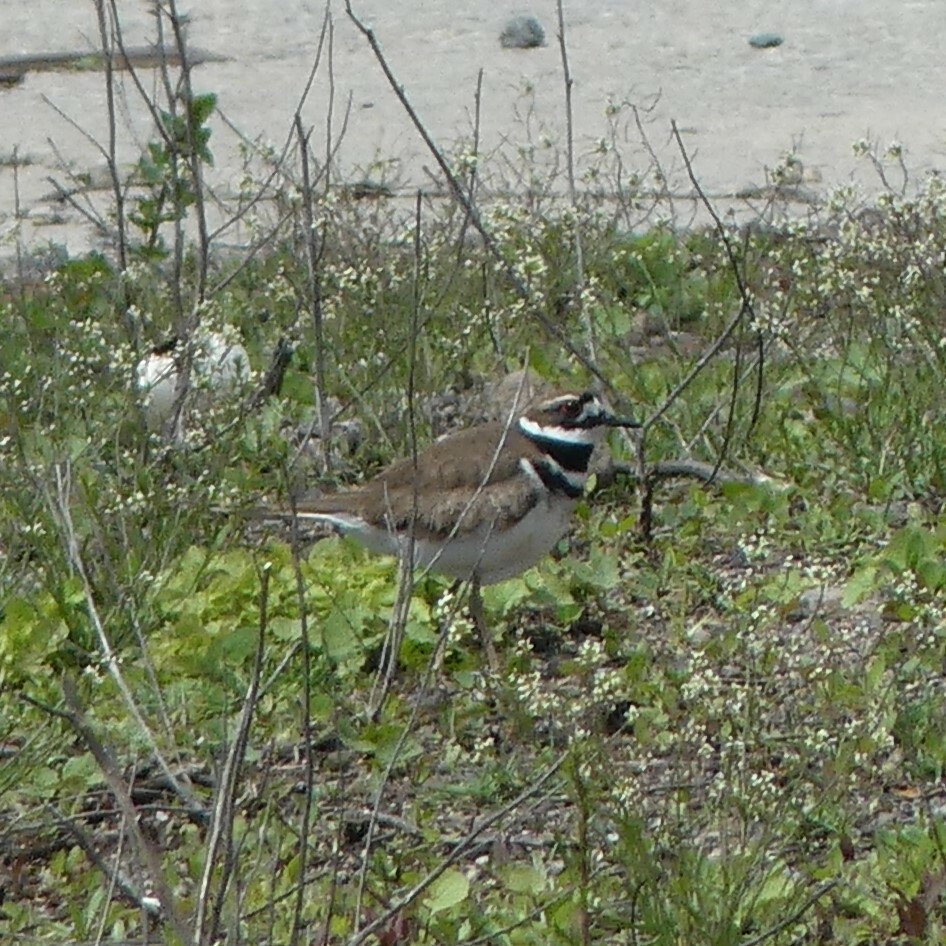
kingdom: Animalia
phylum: Chordata
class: Aves
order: Charadriiformes
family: Charadriidae
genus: Charadrius
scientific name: Charadrius vociferus
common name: Killdeer
